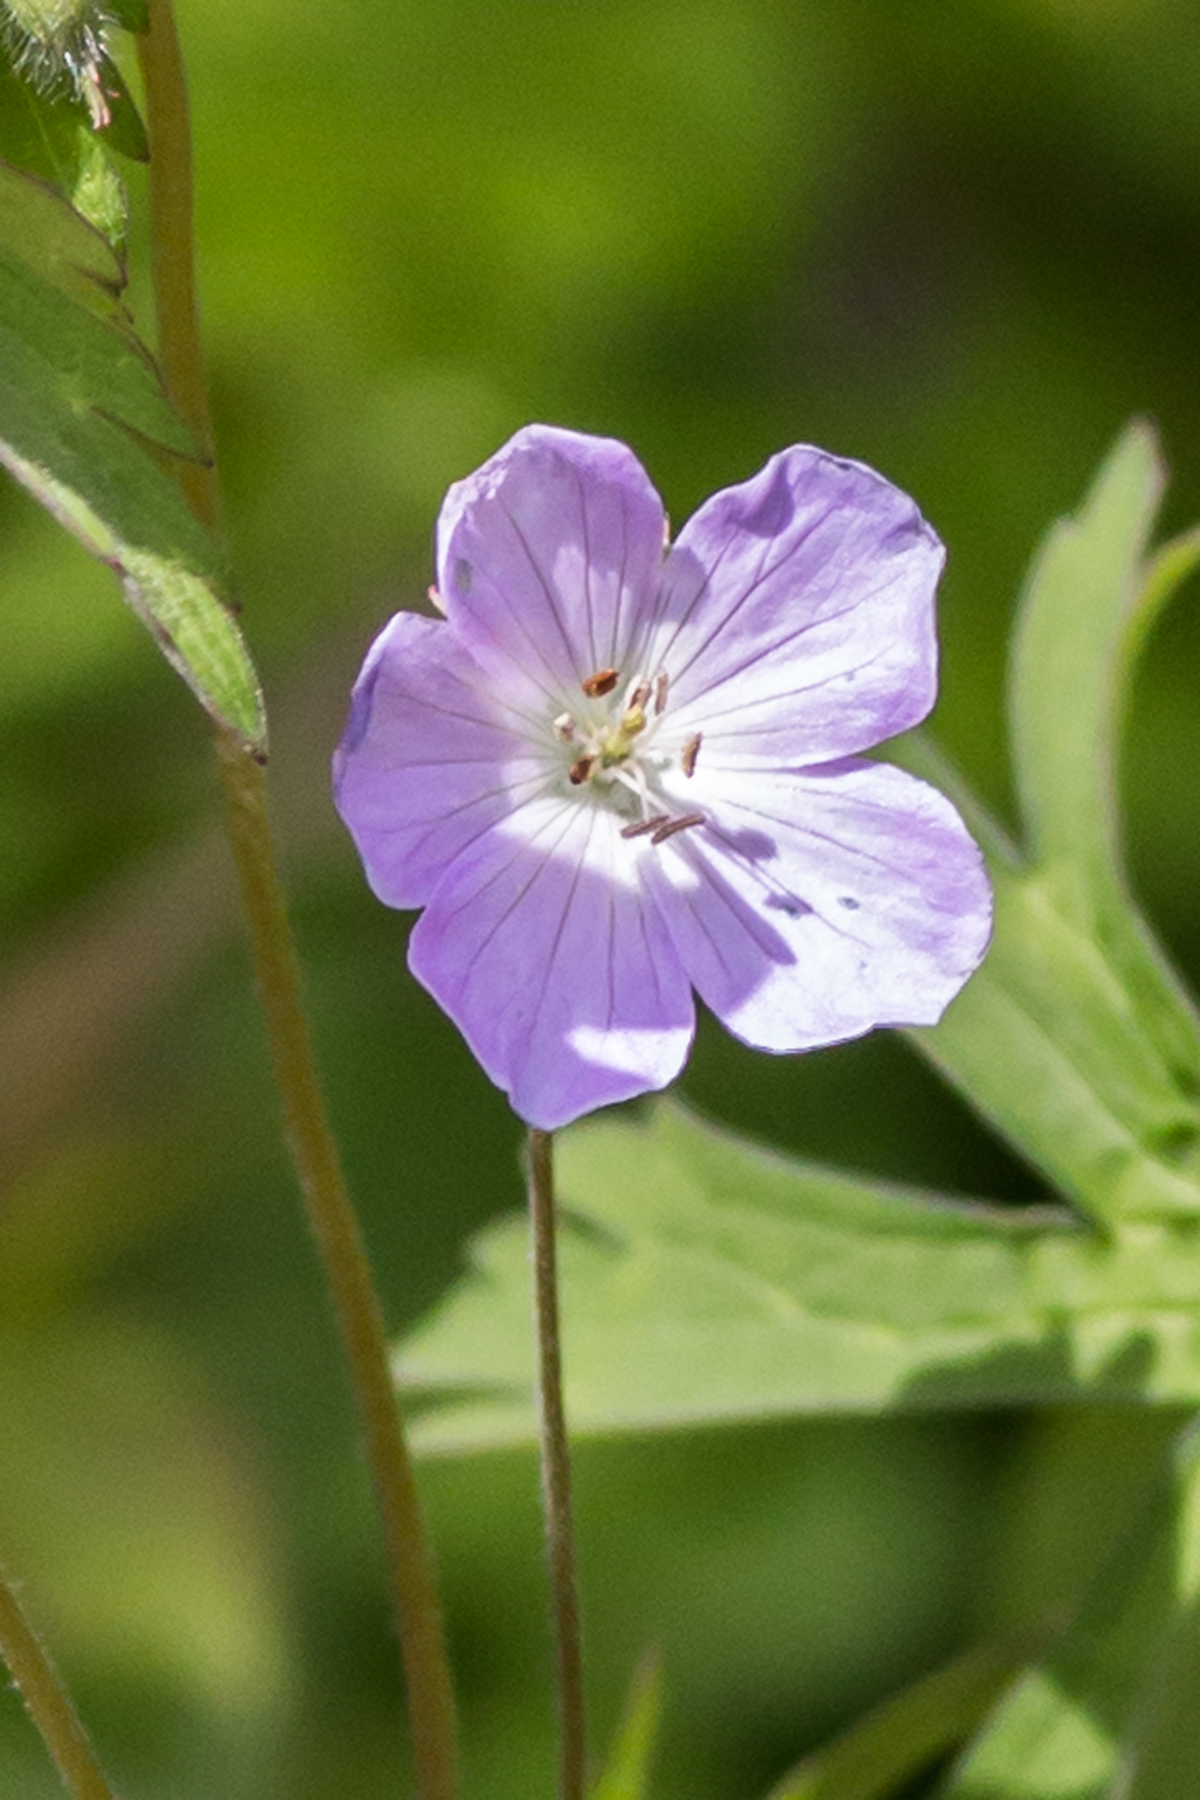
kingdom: Plantae
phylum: Tracheophyta
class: Magnoliopsida
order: Geraniales
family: Geraniaceae
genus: Geranium
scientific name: Geranium maculatum
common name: Spotted geranium
